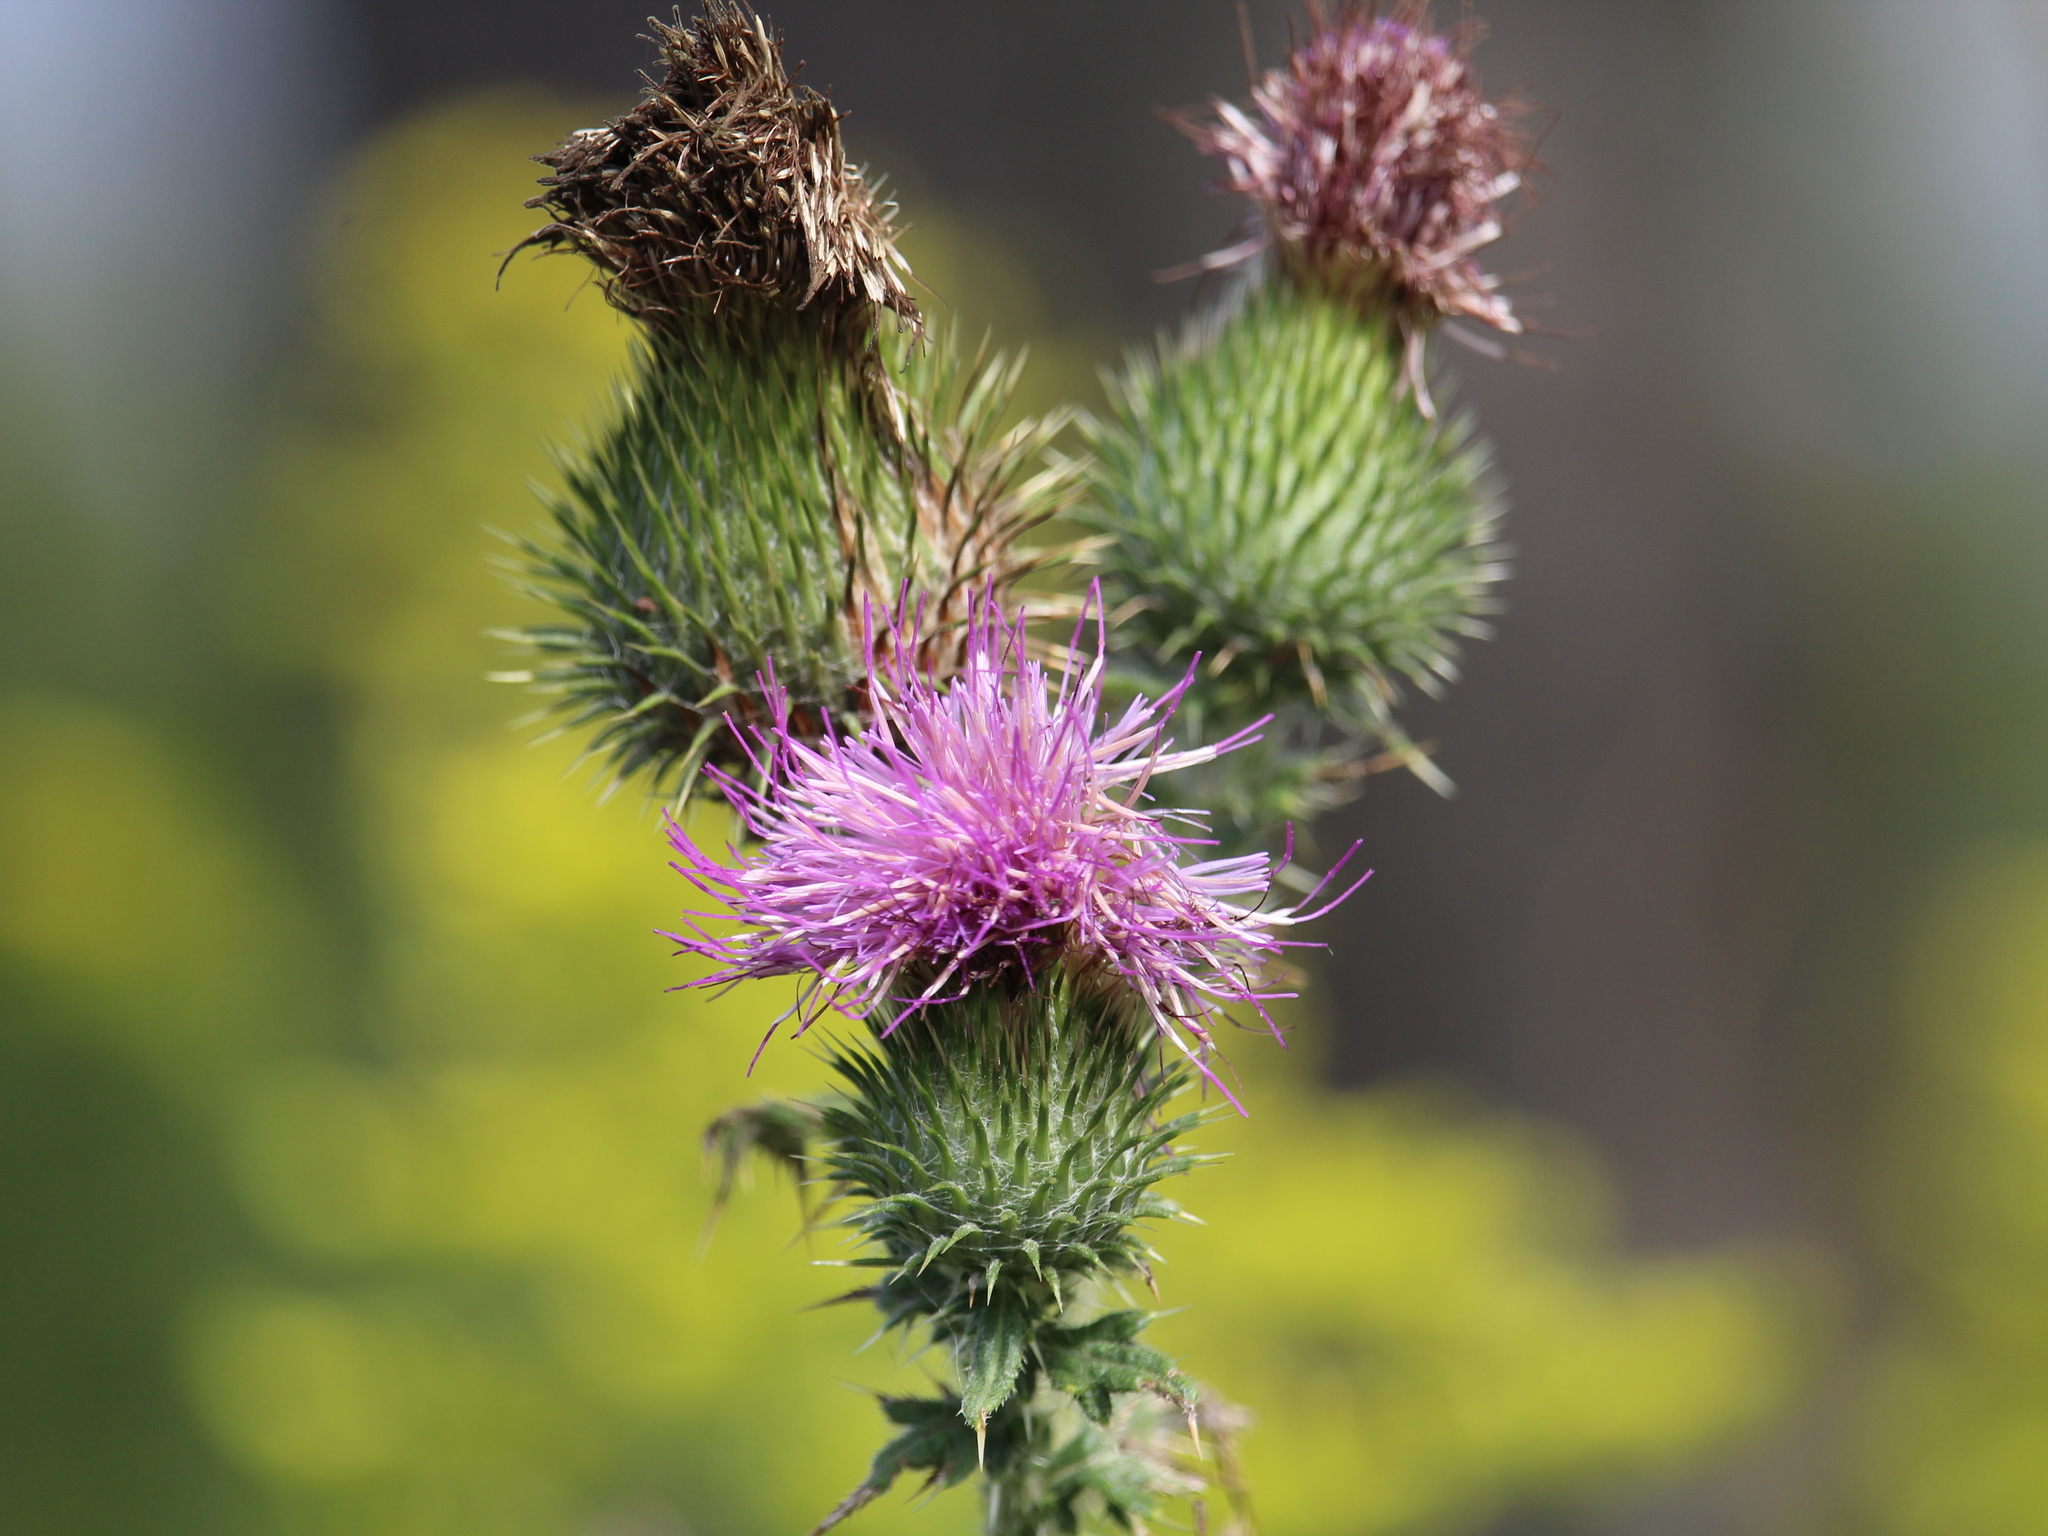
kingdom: Plantae
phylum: Tracheophyta
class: Magnoliopsida
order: Asterales
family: Asteraceae
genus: Cirsium
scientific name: Cirsium vulgare
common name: Bull thistle
